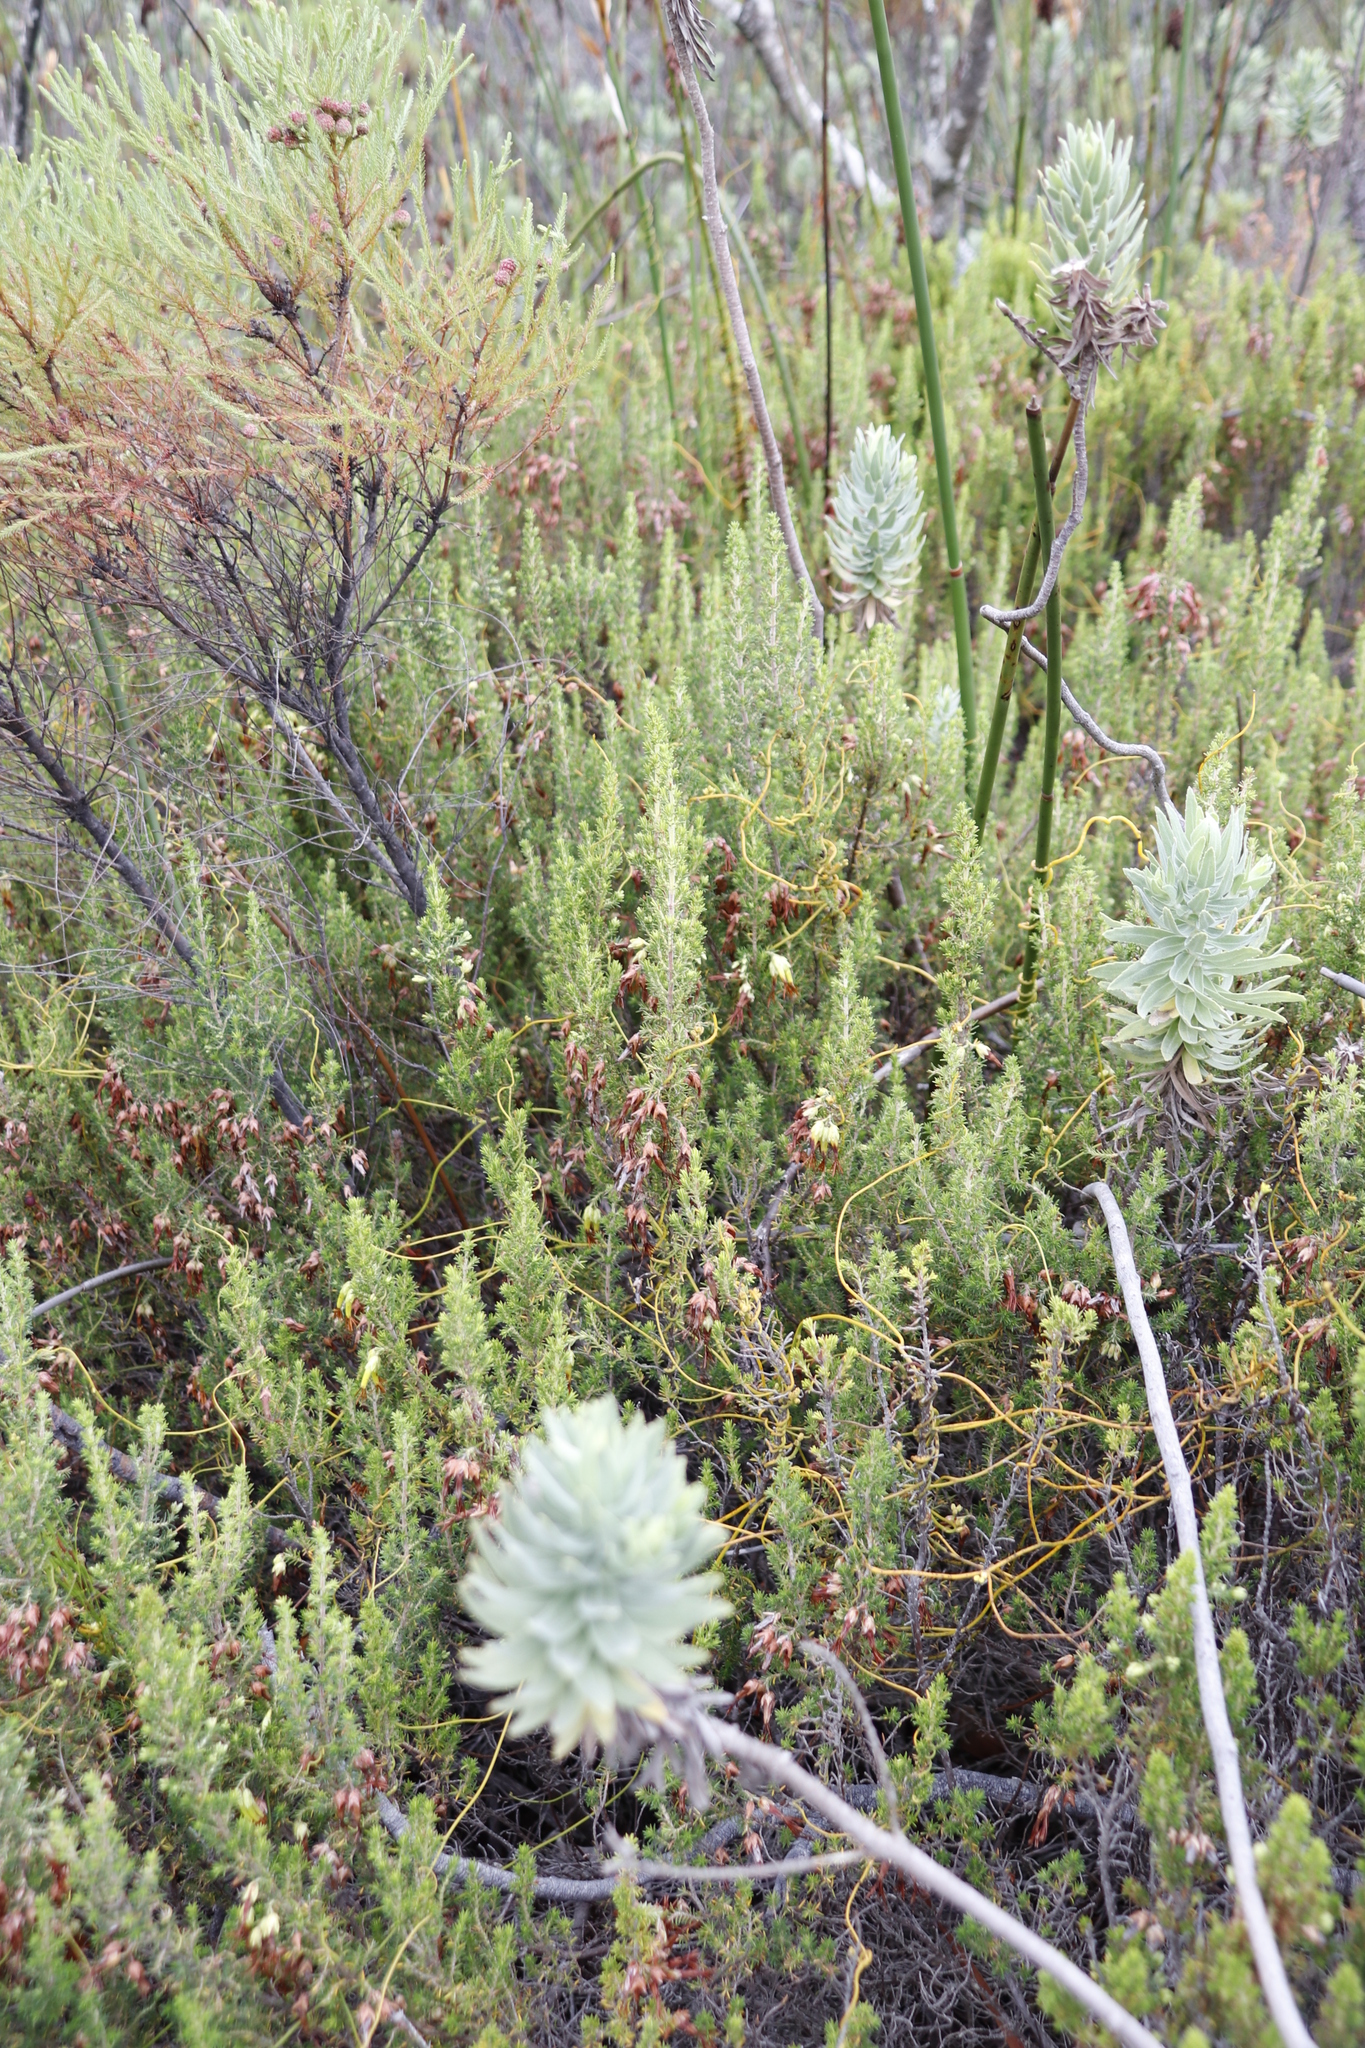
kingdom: Plantae
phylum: Tracheophyta
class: Magnoliopsida
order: Ericales
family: Ericaceae
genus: Erica
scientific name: Erica coccinea
